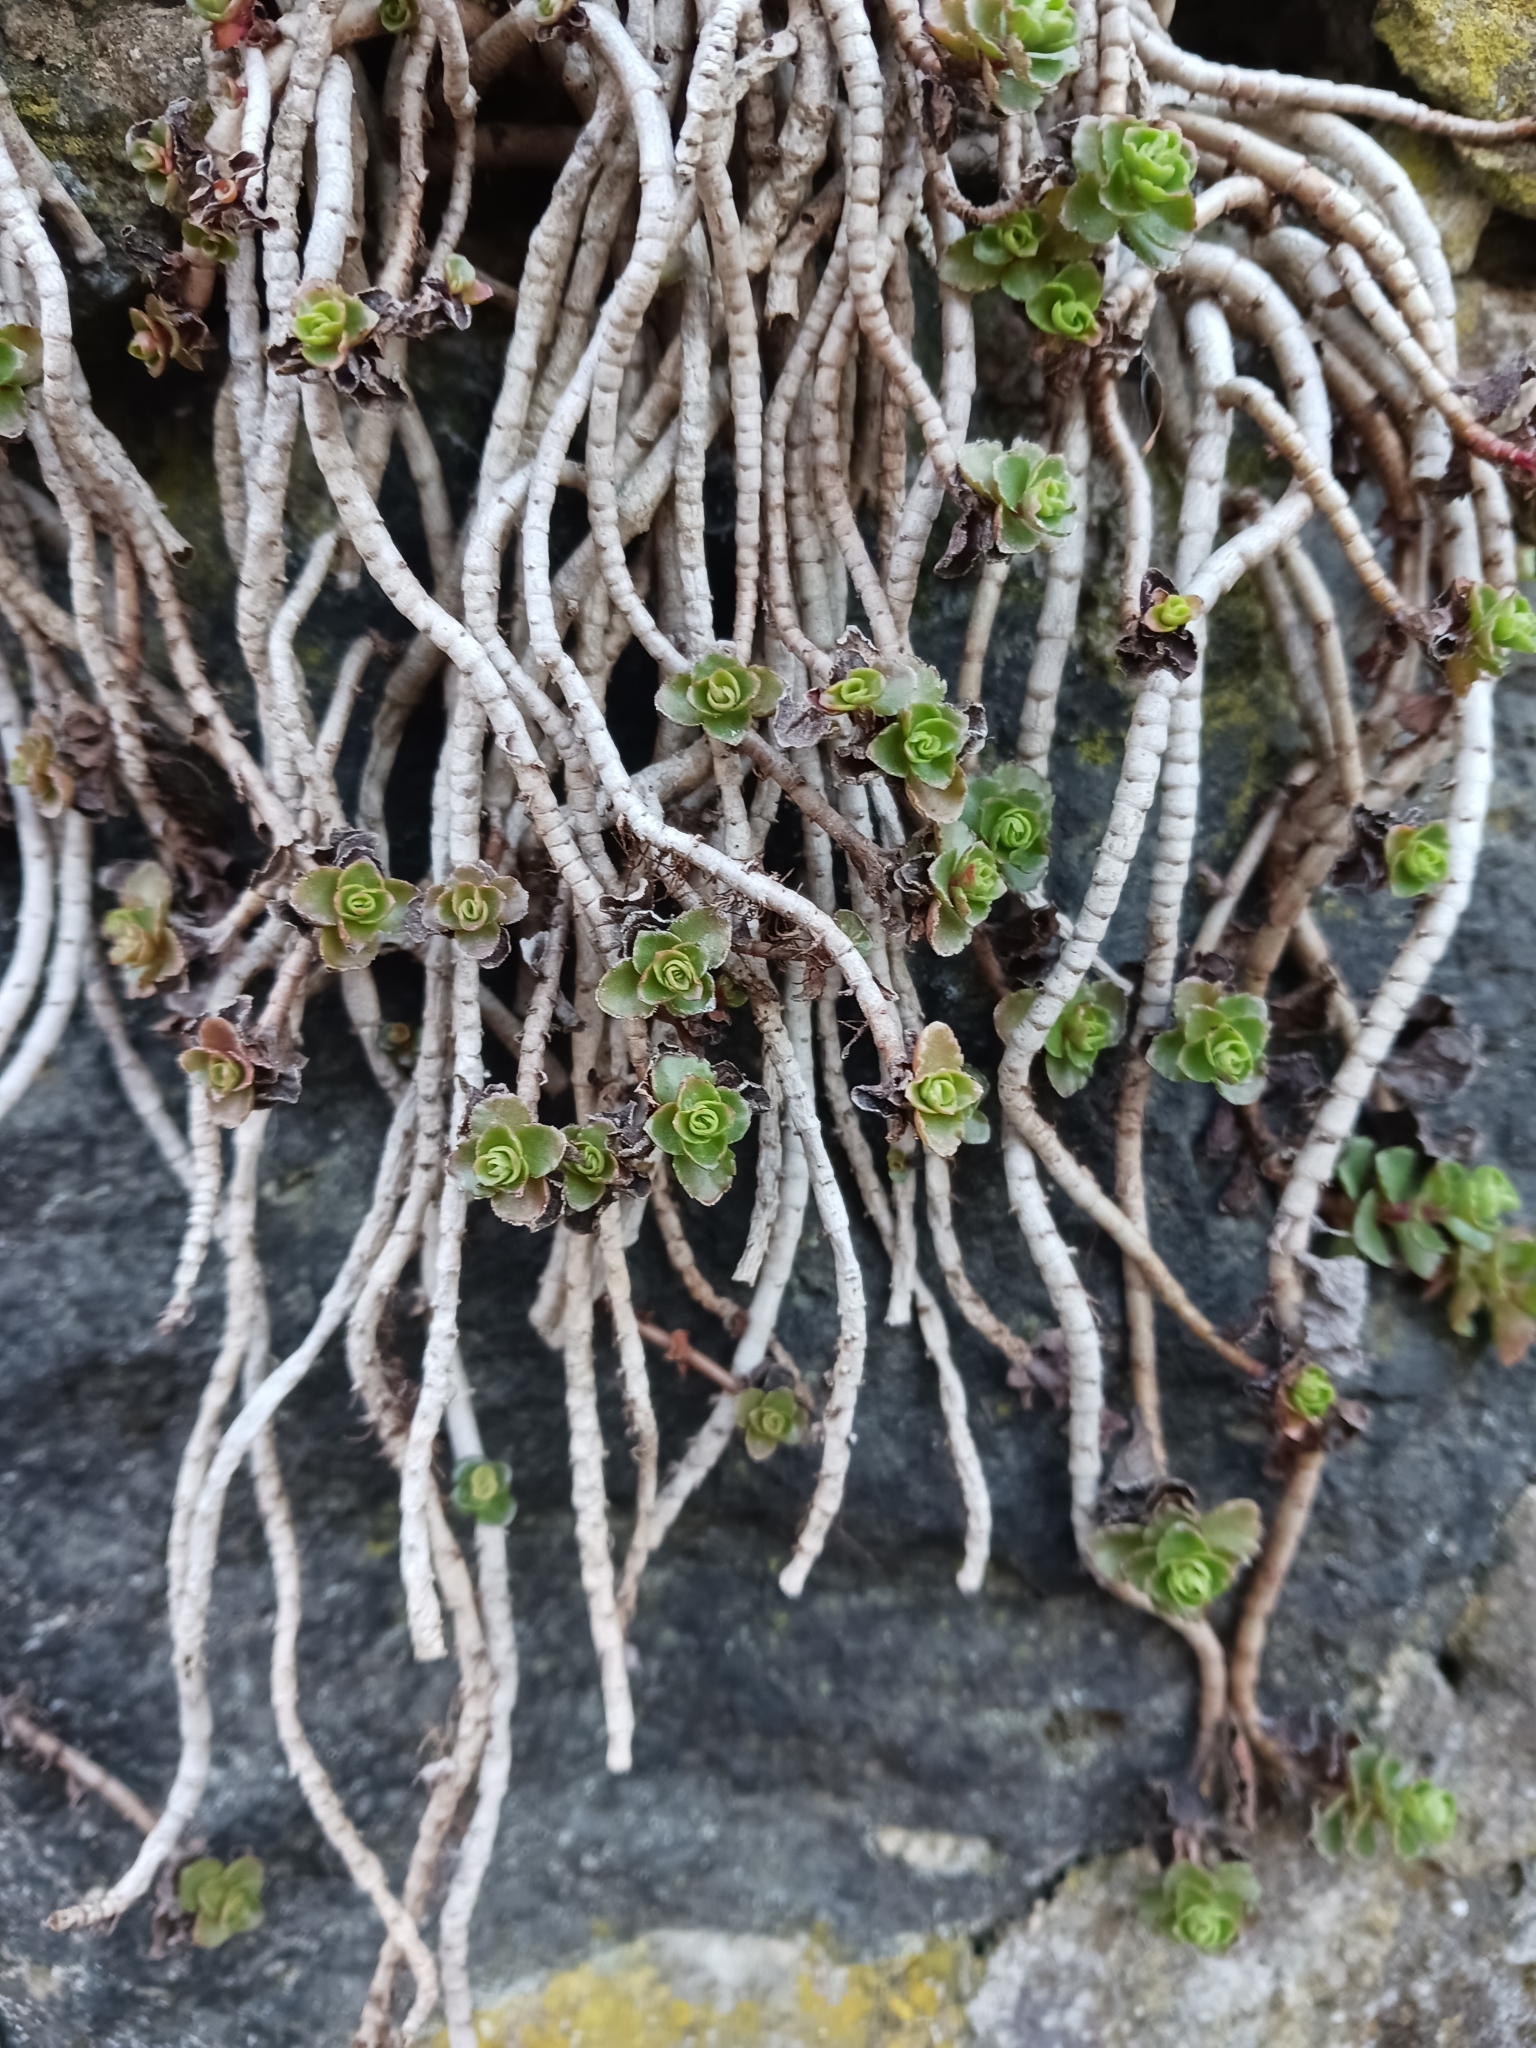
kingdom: Plantae
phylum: Tracheophyta
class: Magnoliopsida
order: Saxifragales
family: Crassulaceae
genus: Phedimus
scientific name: Phedimus
